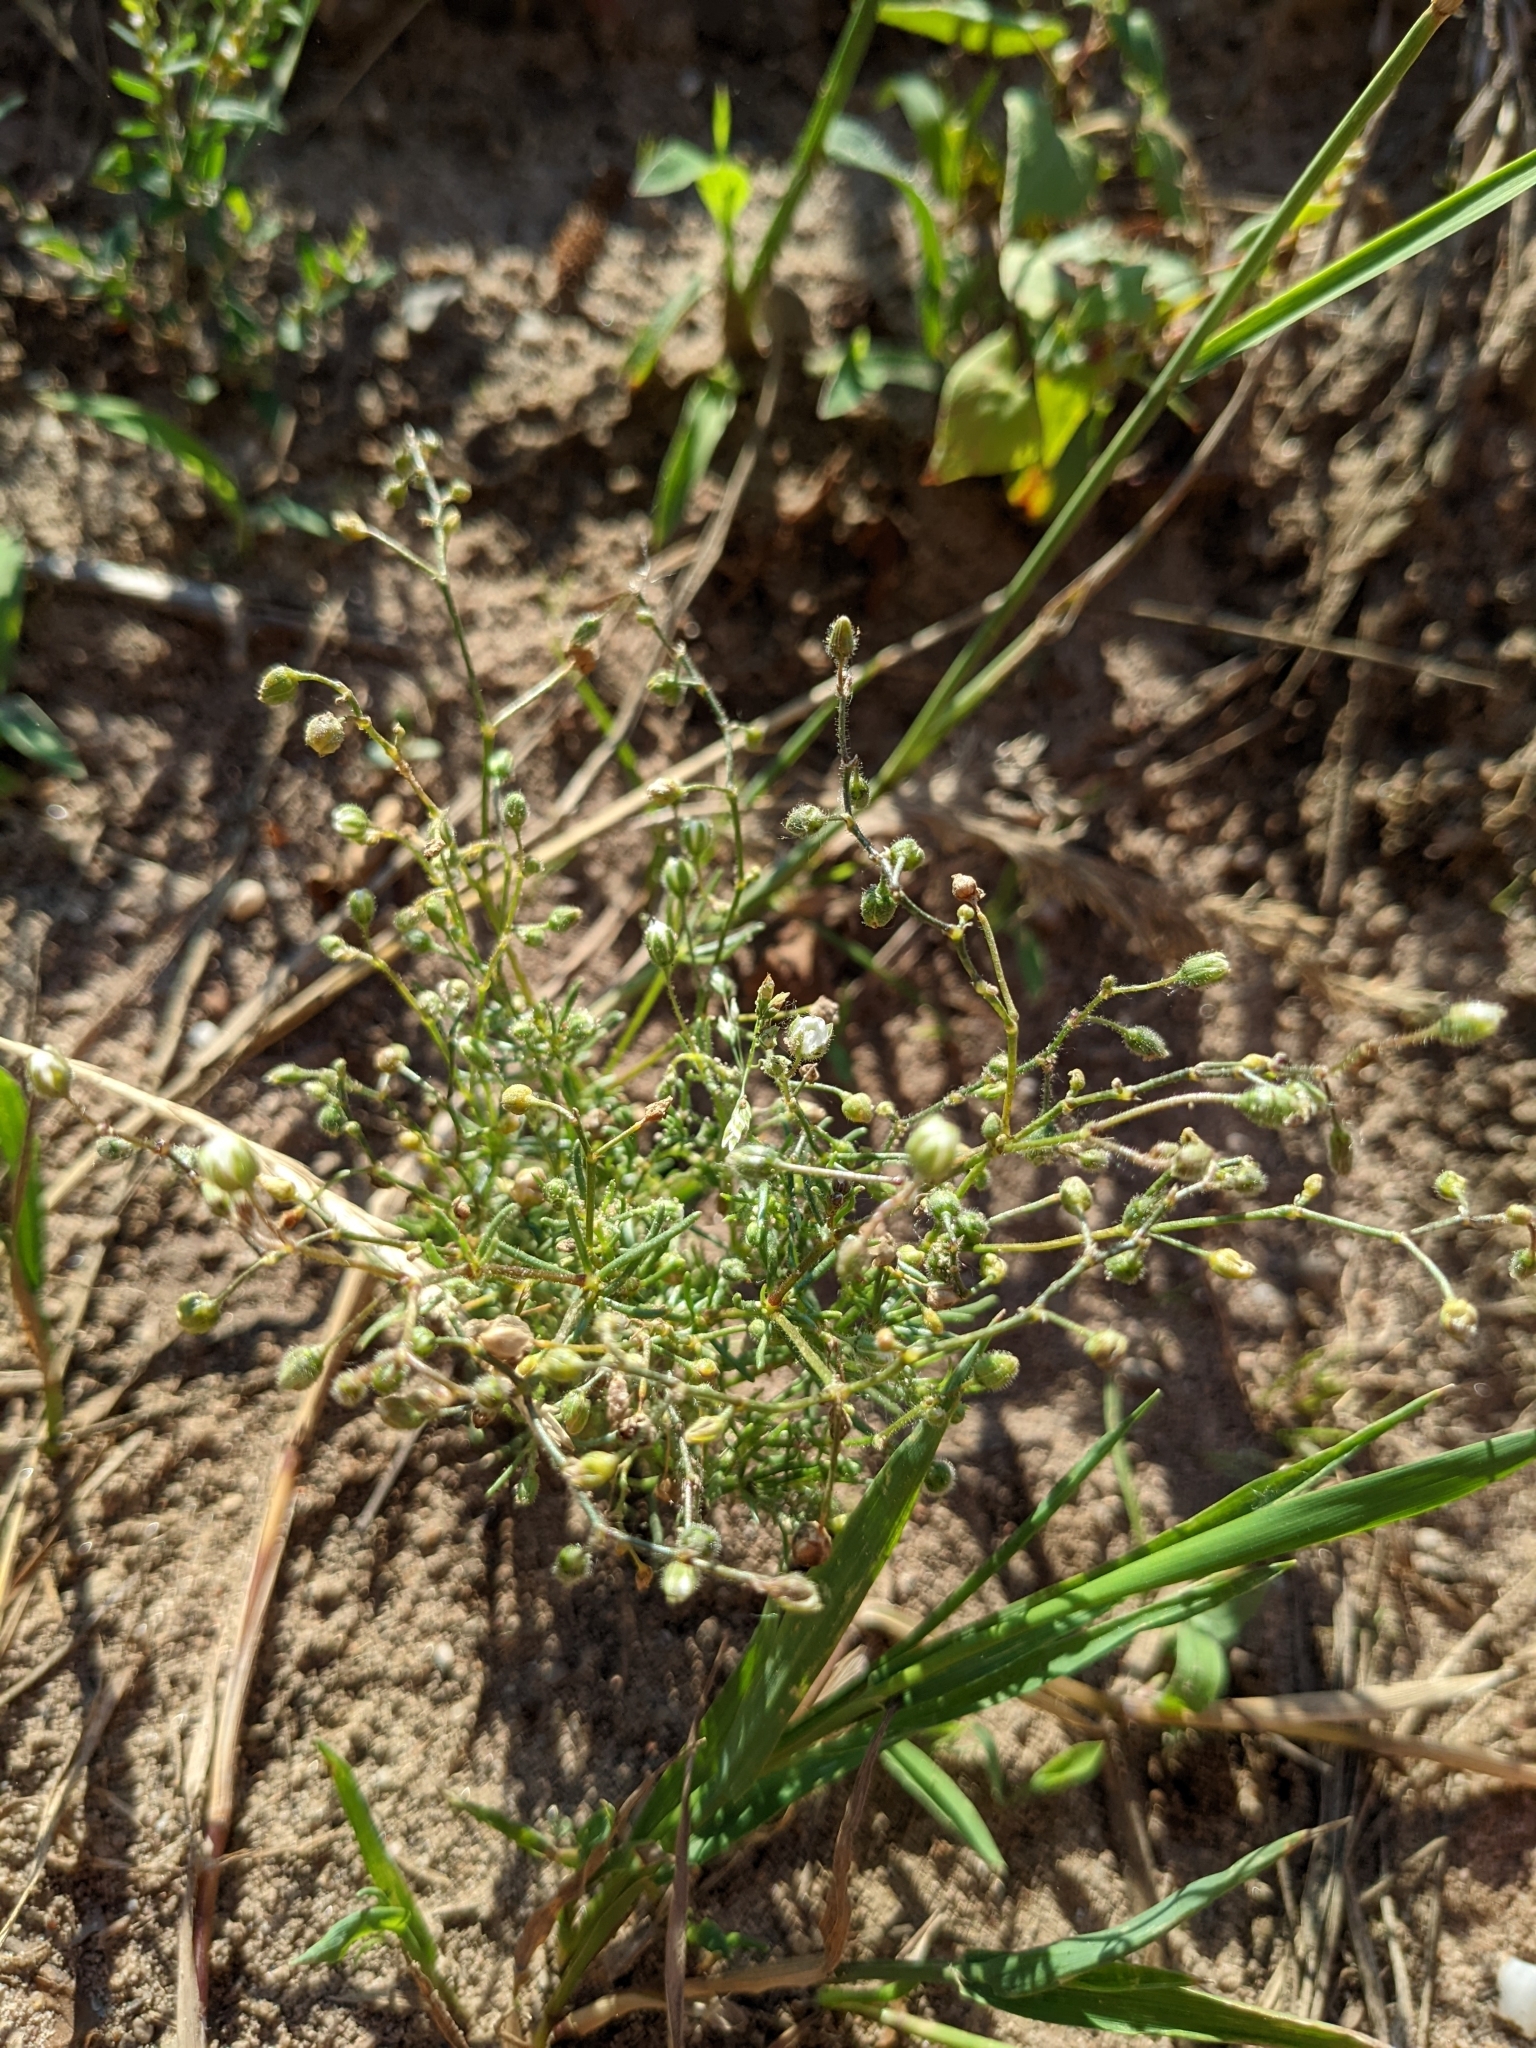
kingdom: Plantae
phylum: Tracheophyta
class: Magnoliopsida
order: Caryophyllales
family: Caryophyllaceae
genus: Spergula
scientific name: Spergula arvensis
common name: Corn spurrey
